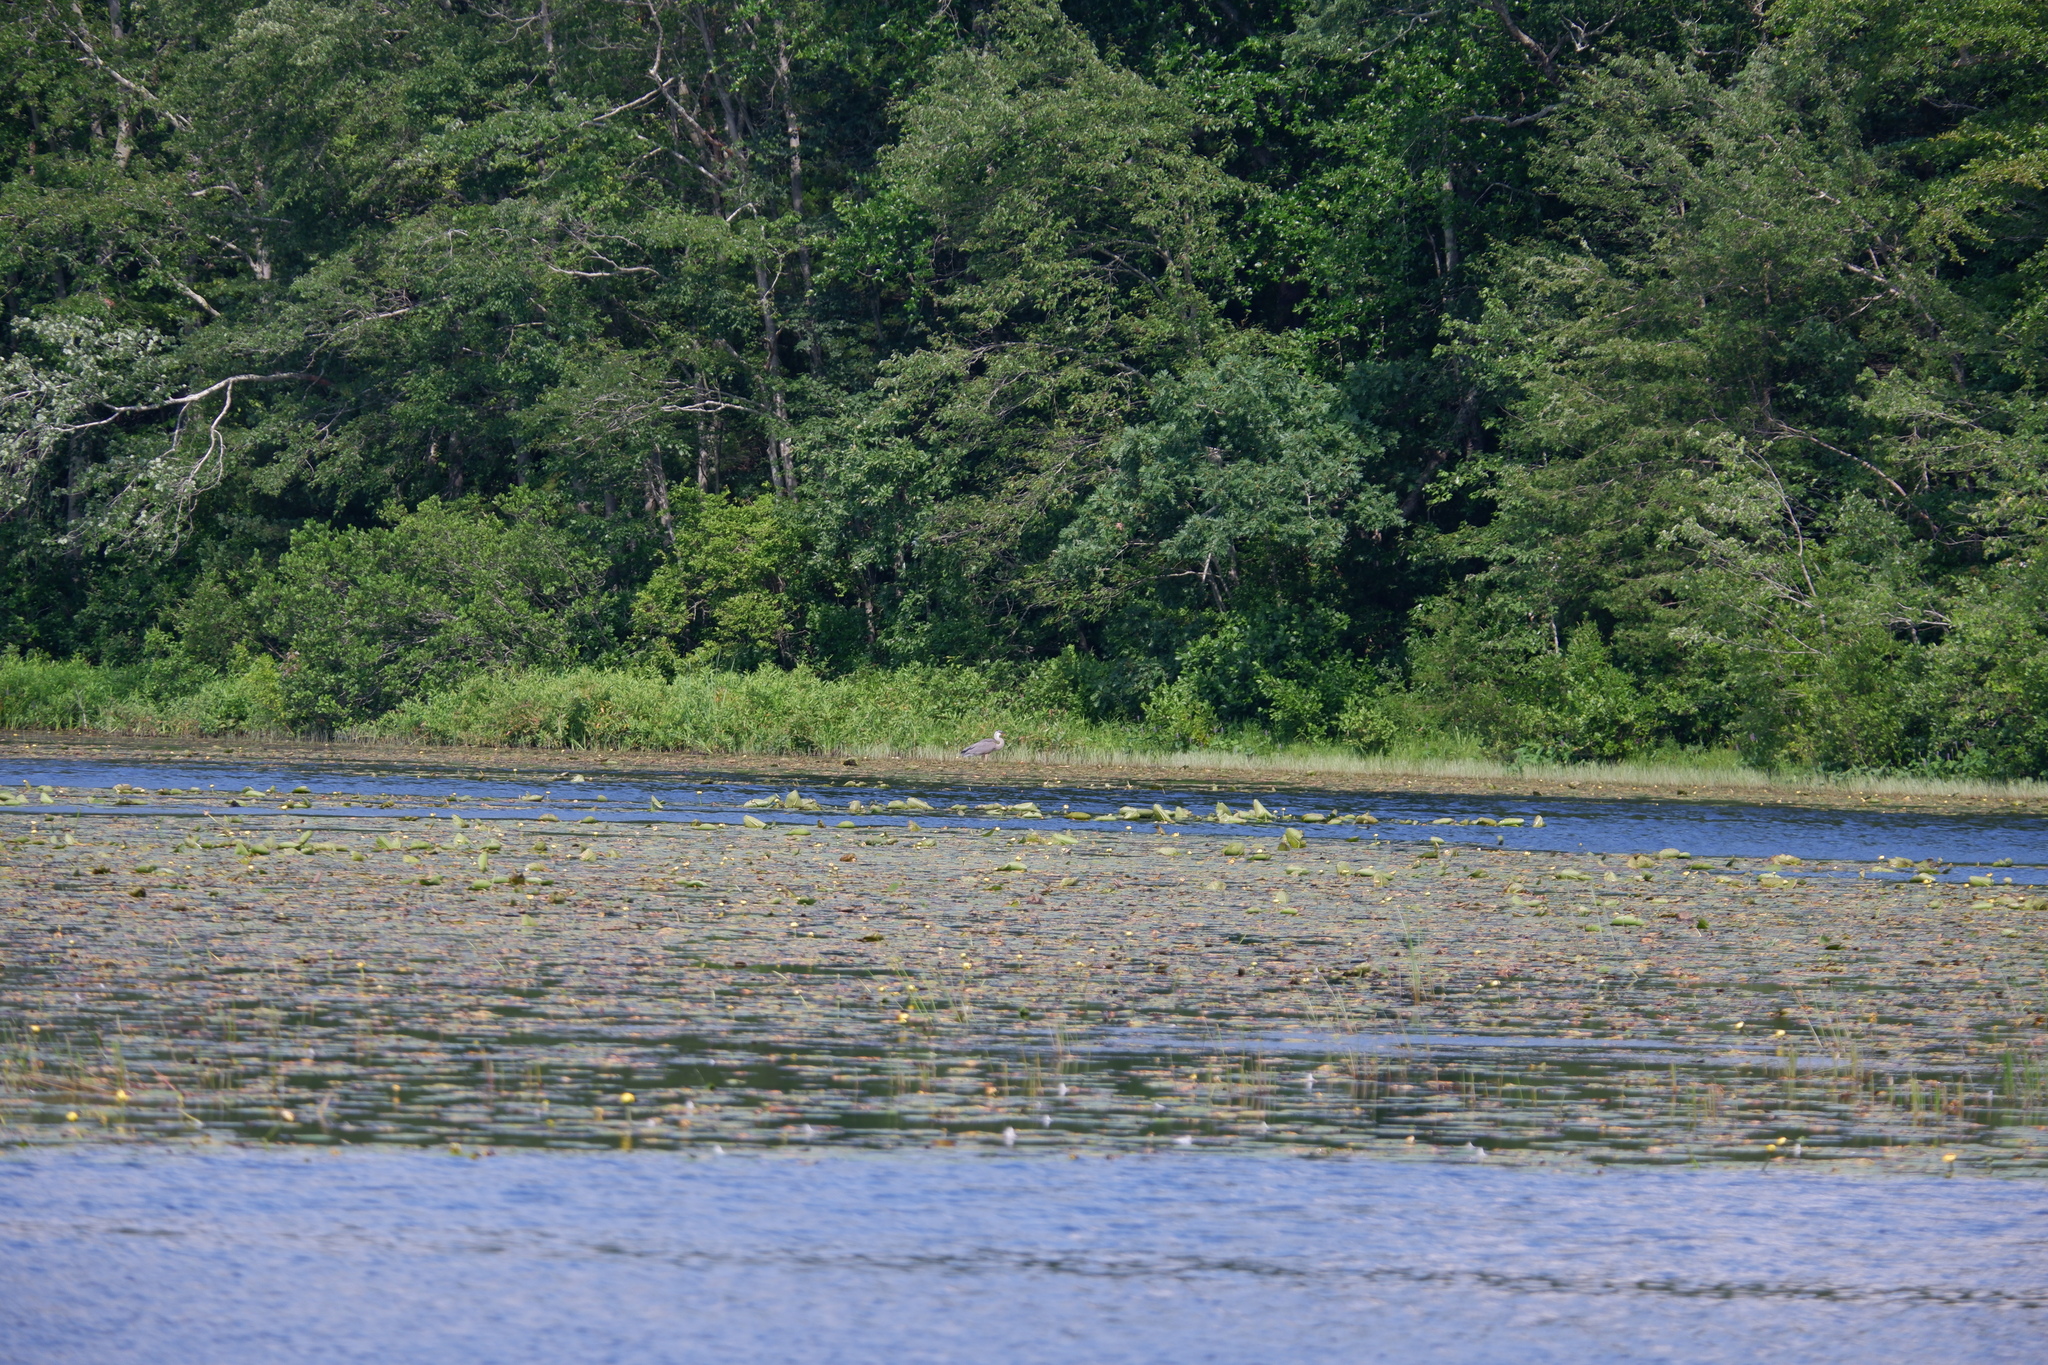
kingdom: Animalia
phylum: Chordata
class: Aves
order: Pelecaniformes
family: Ardeidae
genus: Ardea
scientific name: Ardea herodias
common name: Great blue heron
